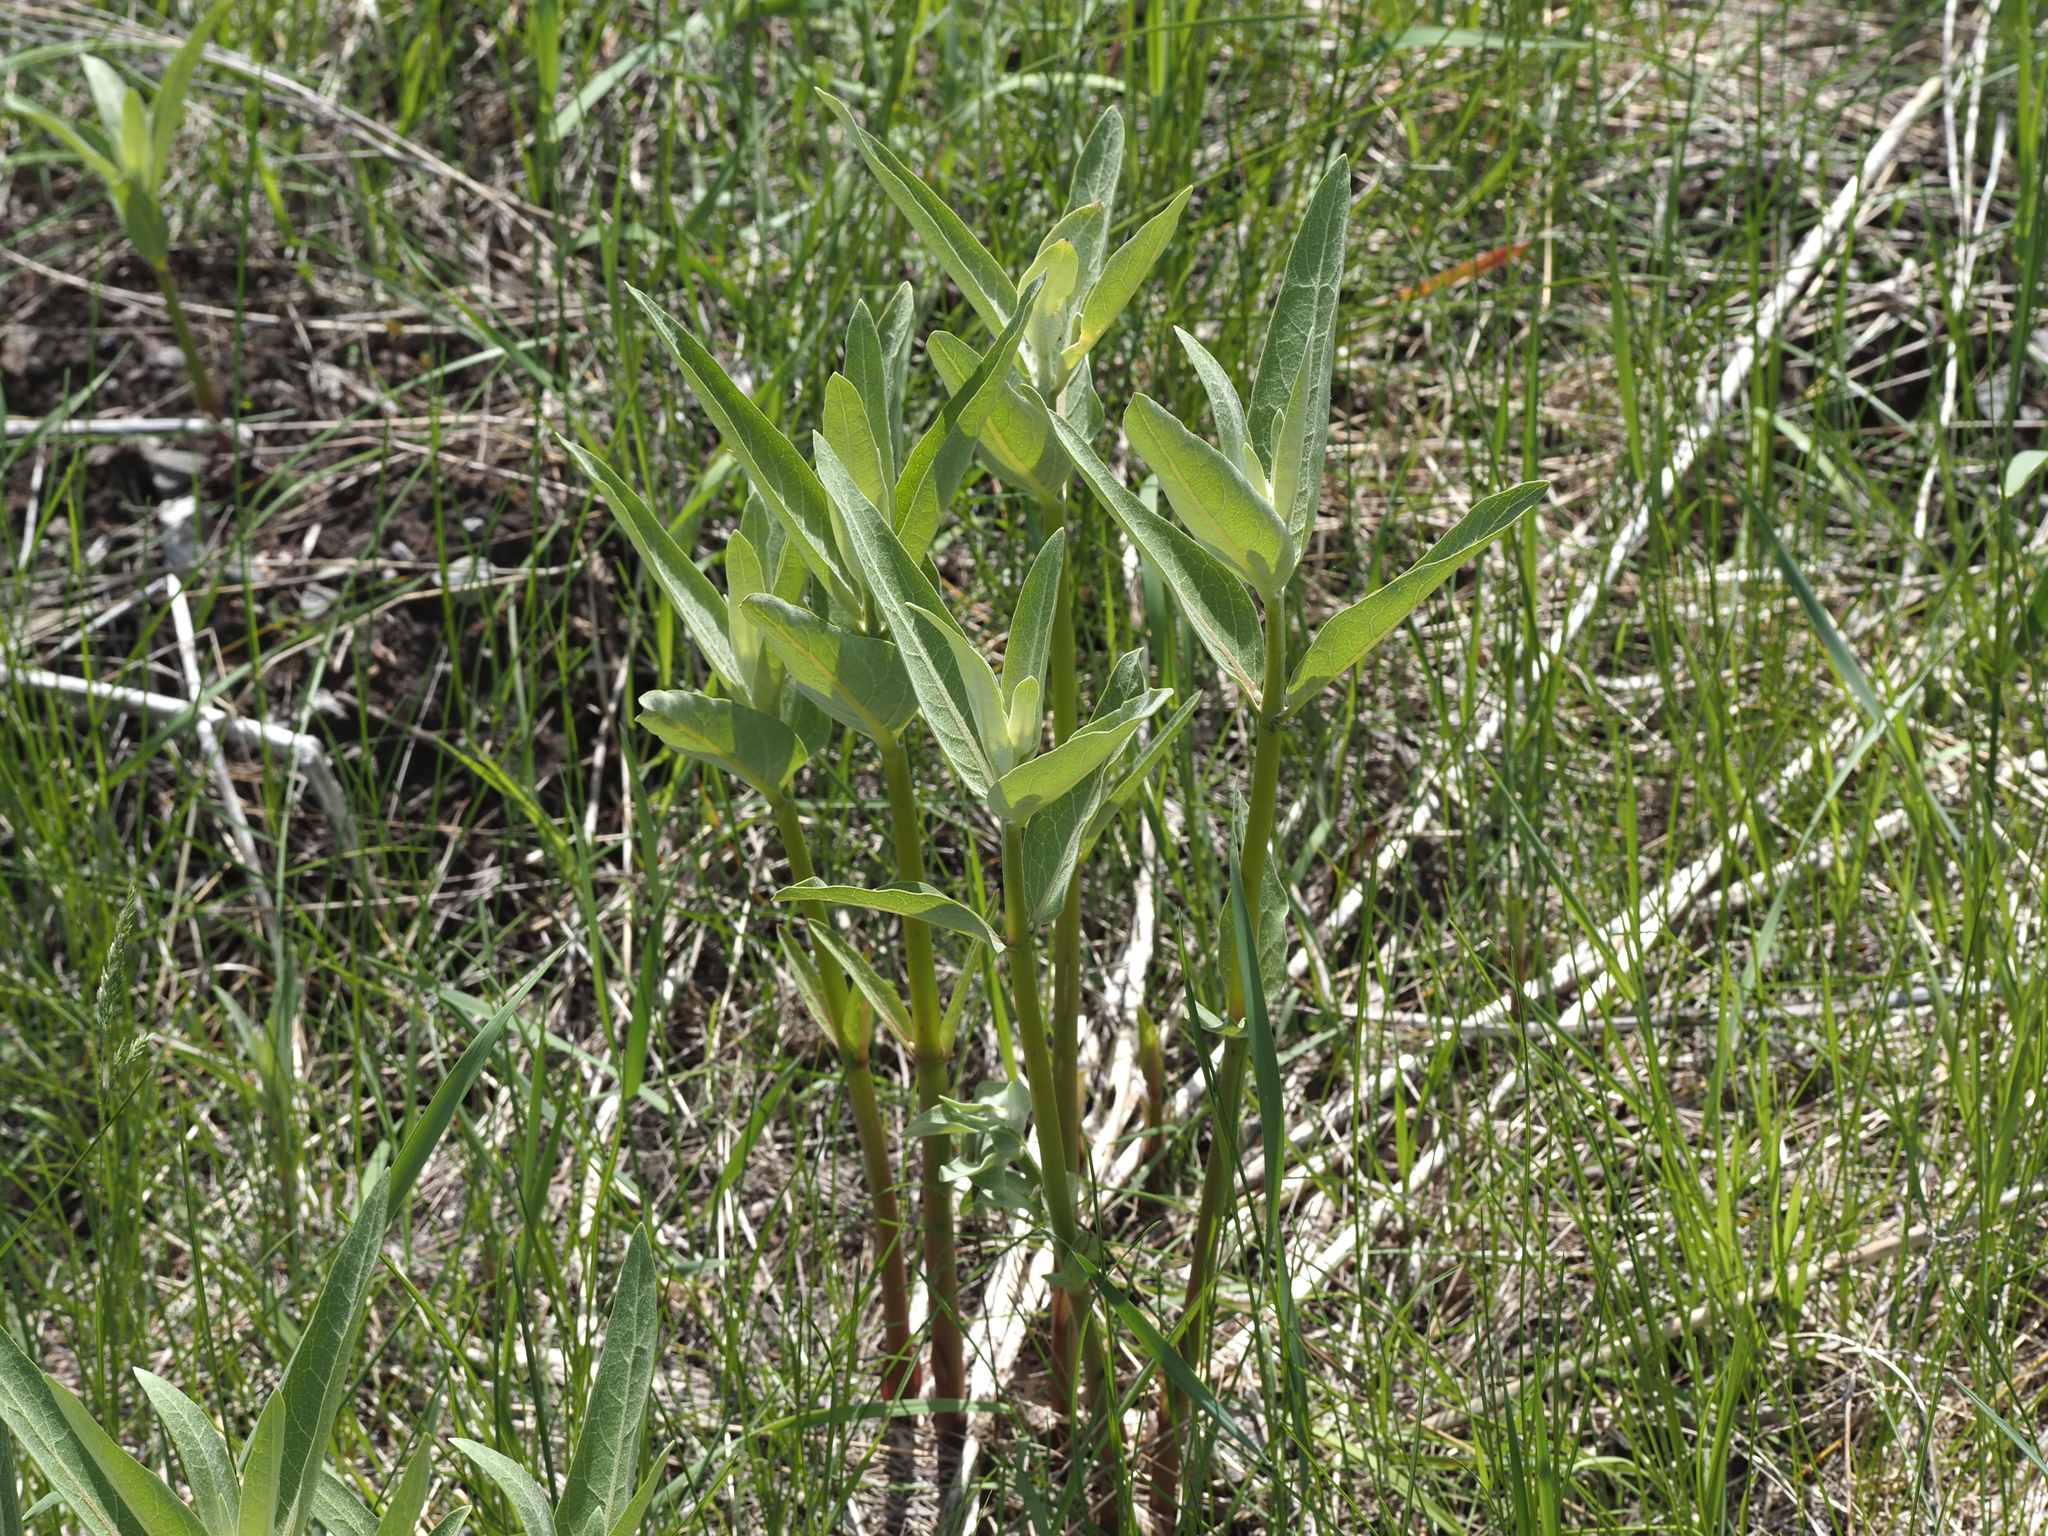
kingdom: Plantae
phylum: Tracheophyta
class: Magnoliopsida
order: Gentianales
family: Apocynaceae
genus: Asclepias
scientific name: Asclepias speciosa
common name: Showy milkweed
